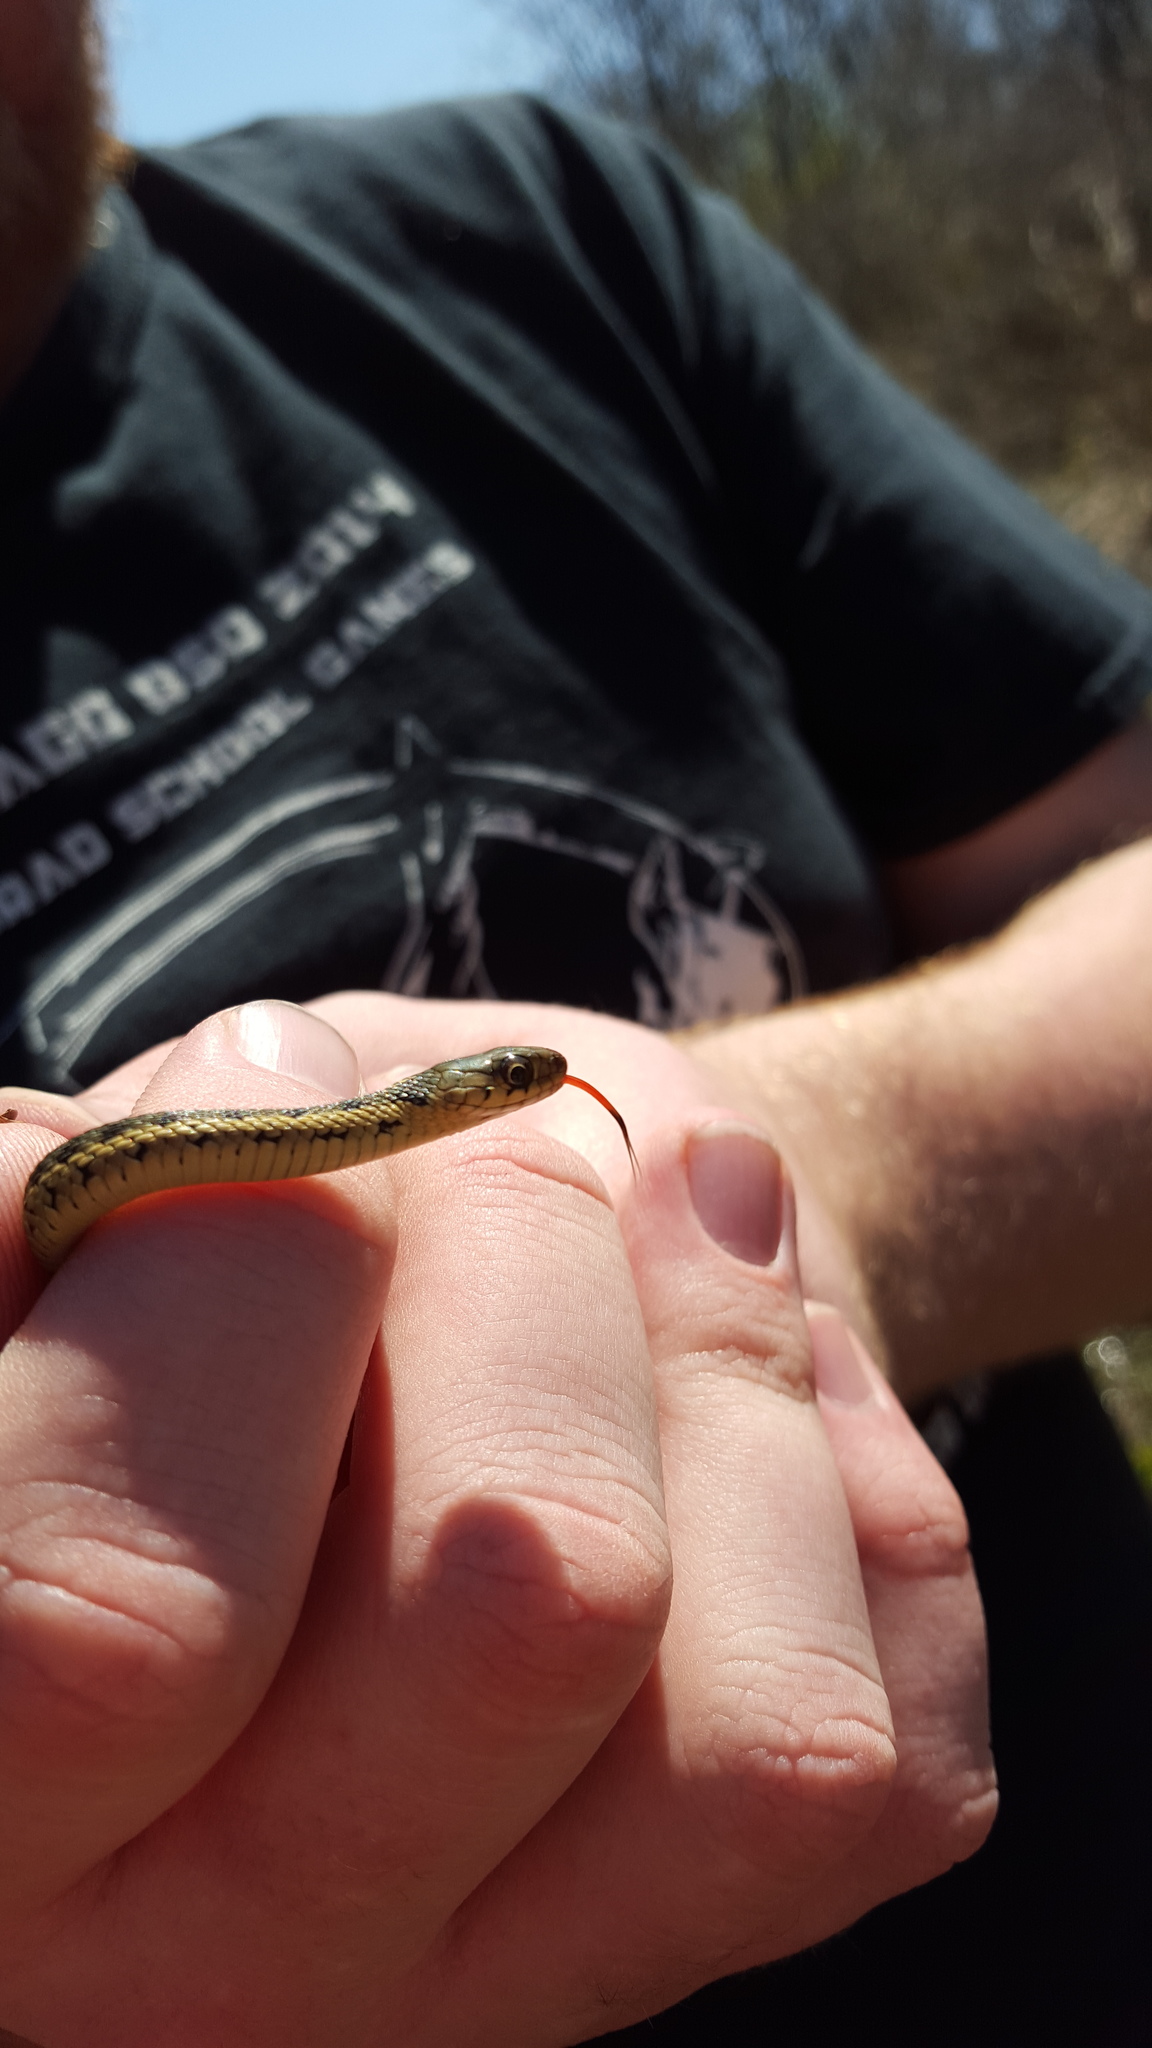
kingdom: Animalia
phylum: Chordata
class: Squamata
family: Colubridae
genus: Thamnophis
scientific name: Thamnophis sirtalis
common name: Common garter snake
